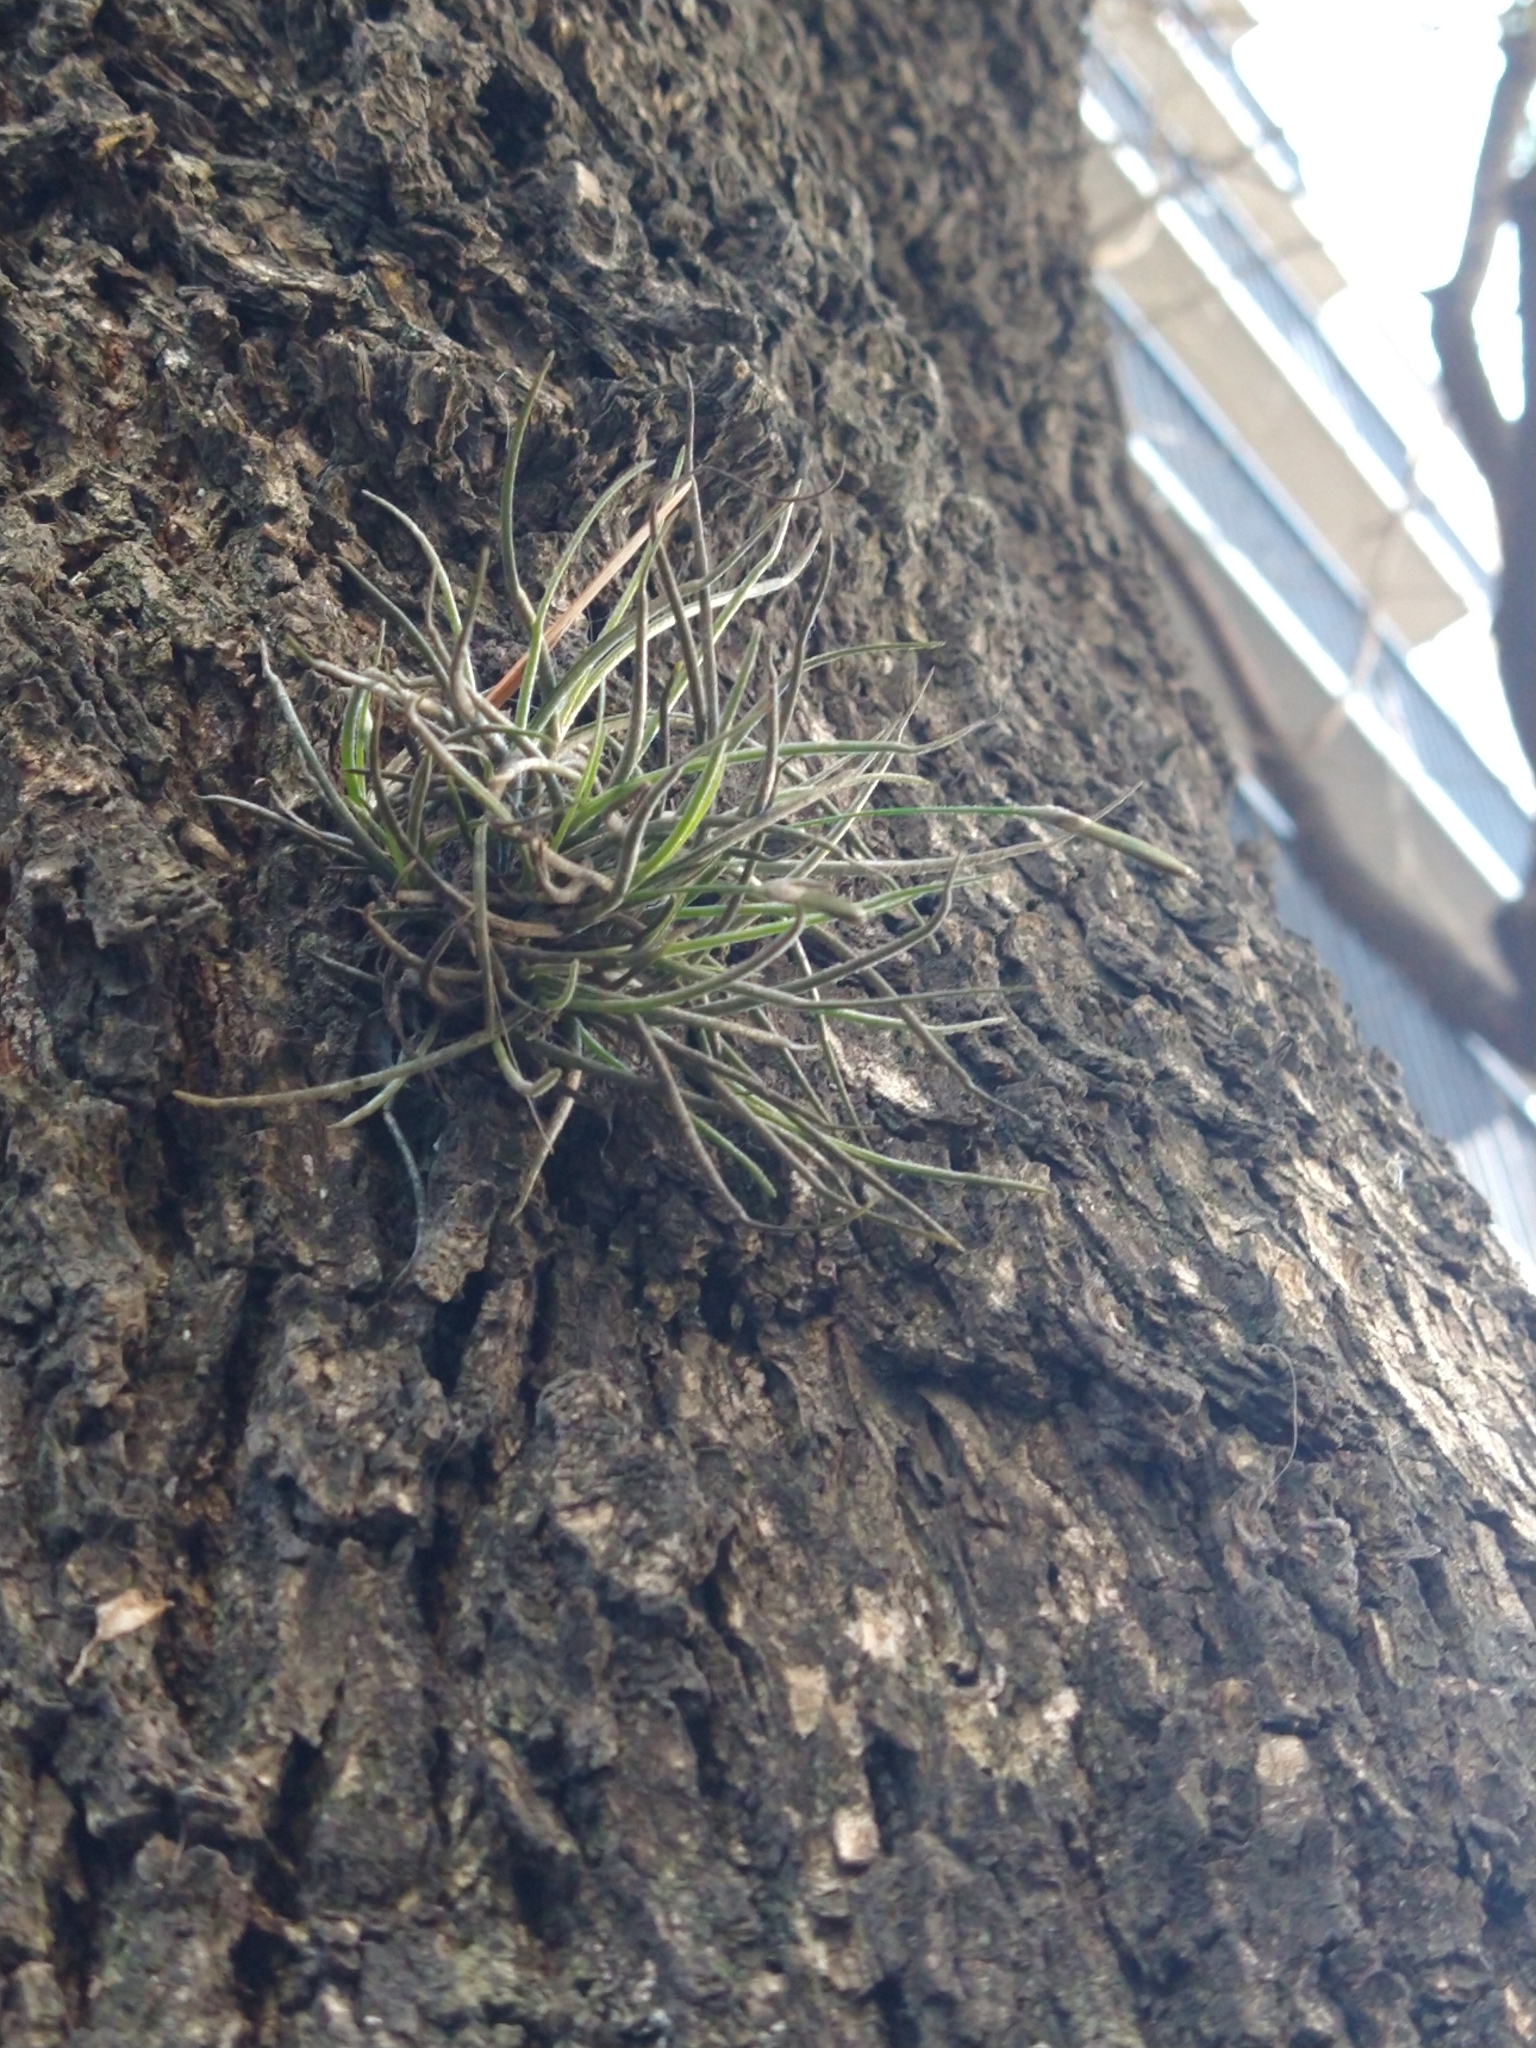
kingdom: Plantae
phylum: Tracheophyta
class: Liliopsida
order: Poales
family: Bromeliaceae
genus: Tillandsia
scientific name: Tillandsia recurvata
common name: Small ballmoss
